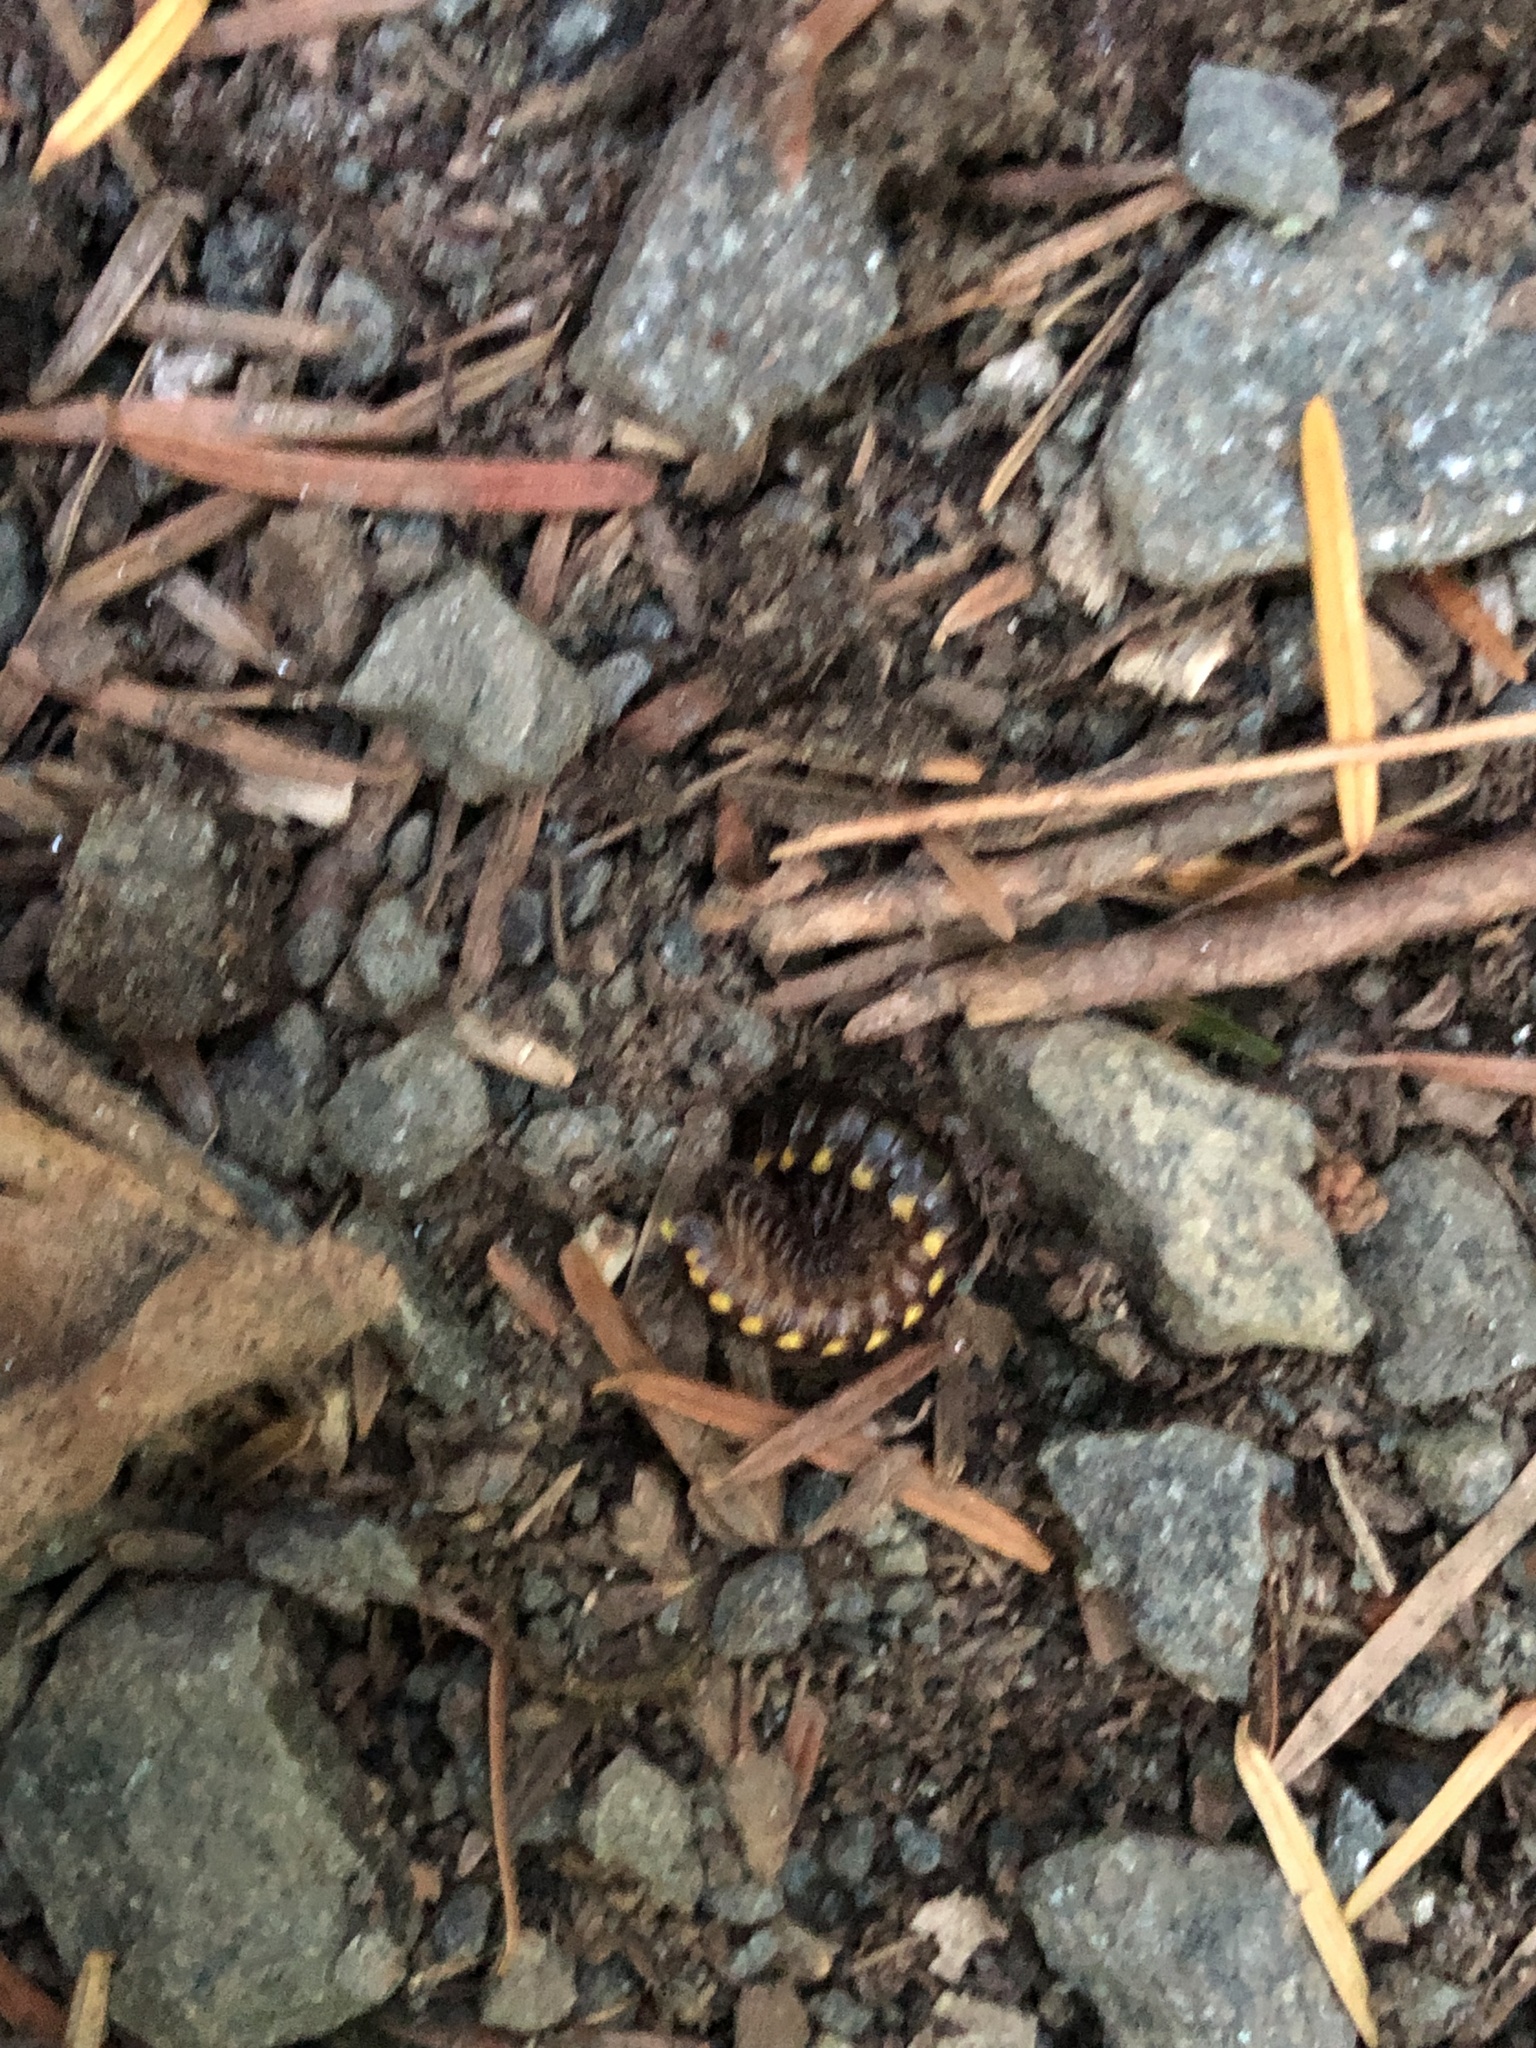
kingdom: Animalia
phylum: Arthropoda
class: Diplopoda
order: Polydesmida
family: Xystodesmidae
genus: Harpaphe
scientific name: Harpaphe haydeniana
